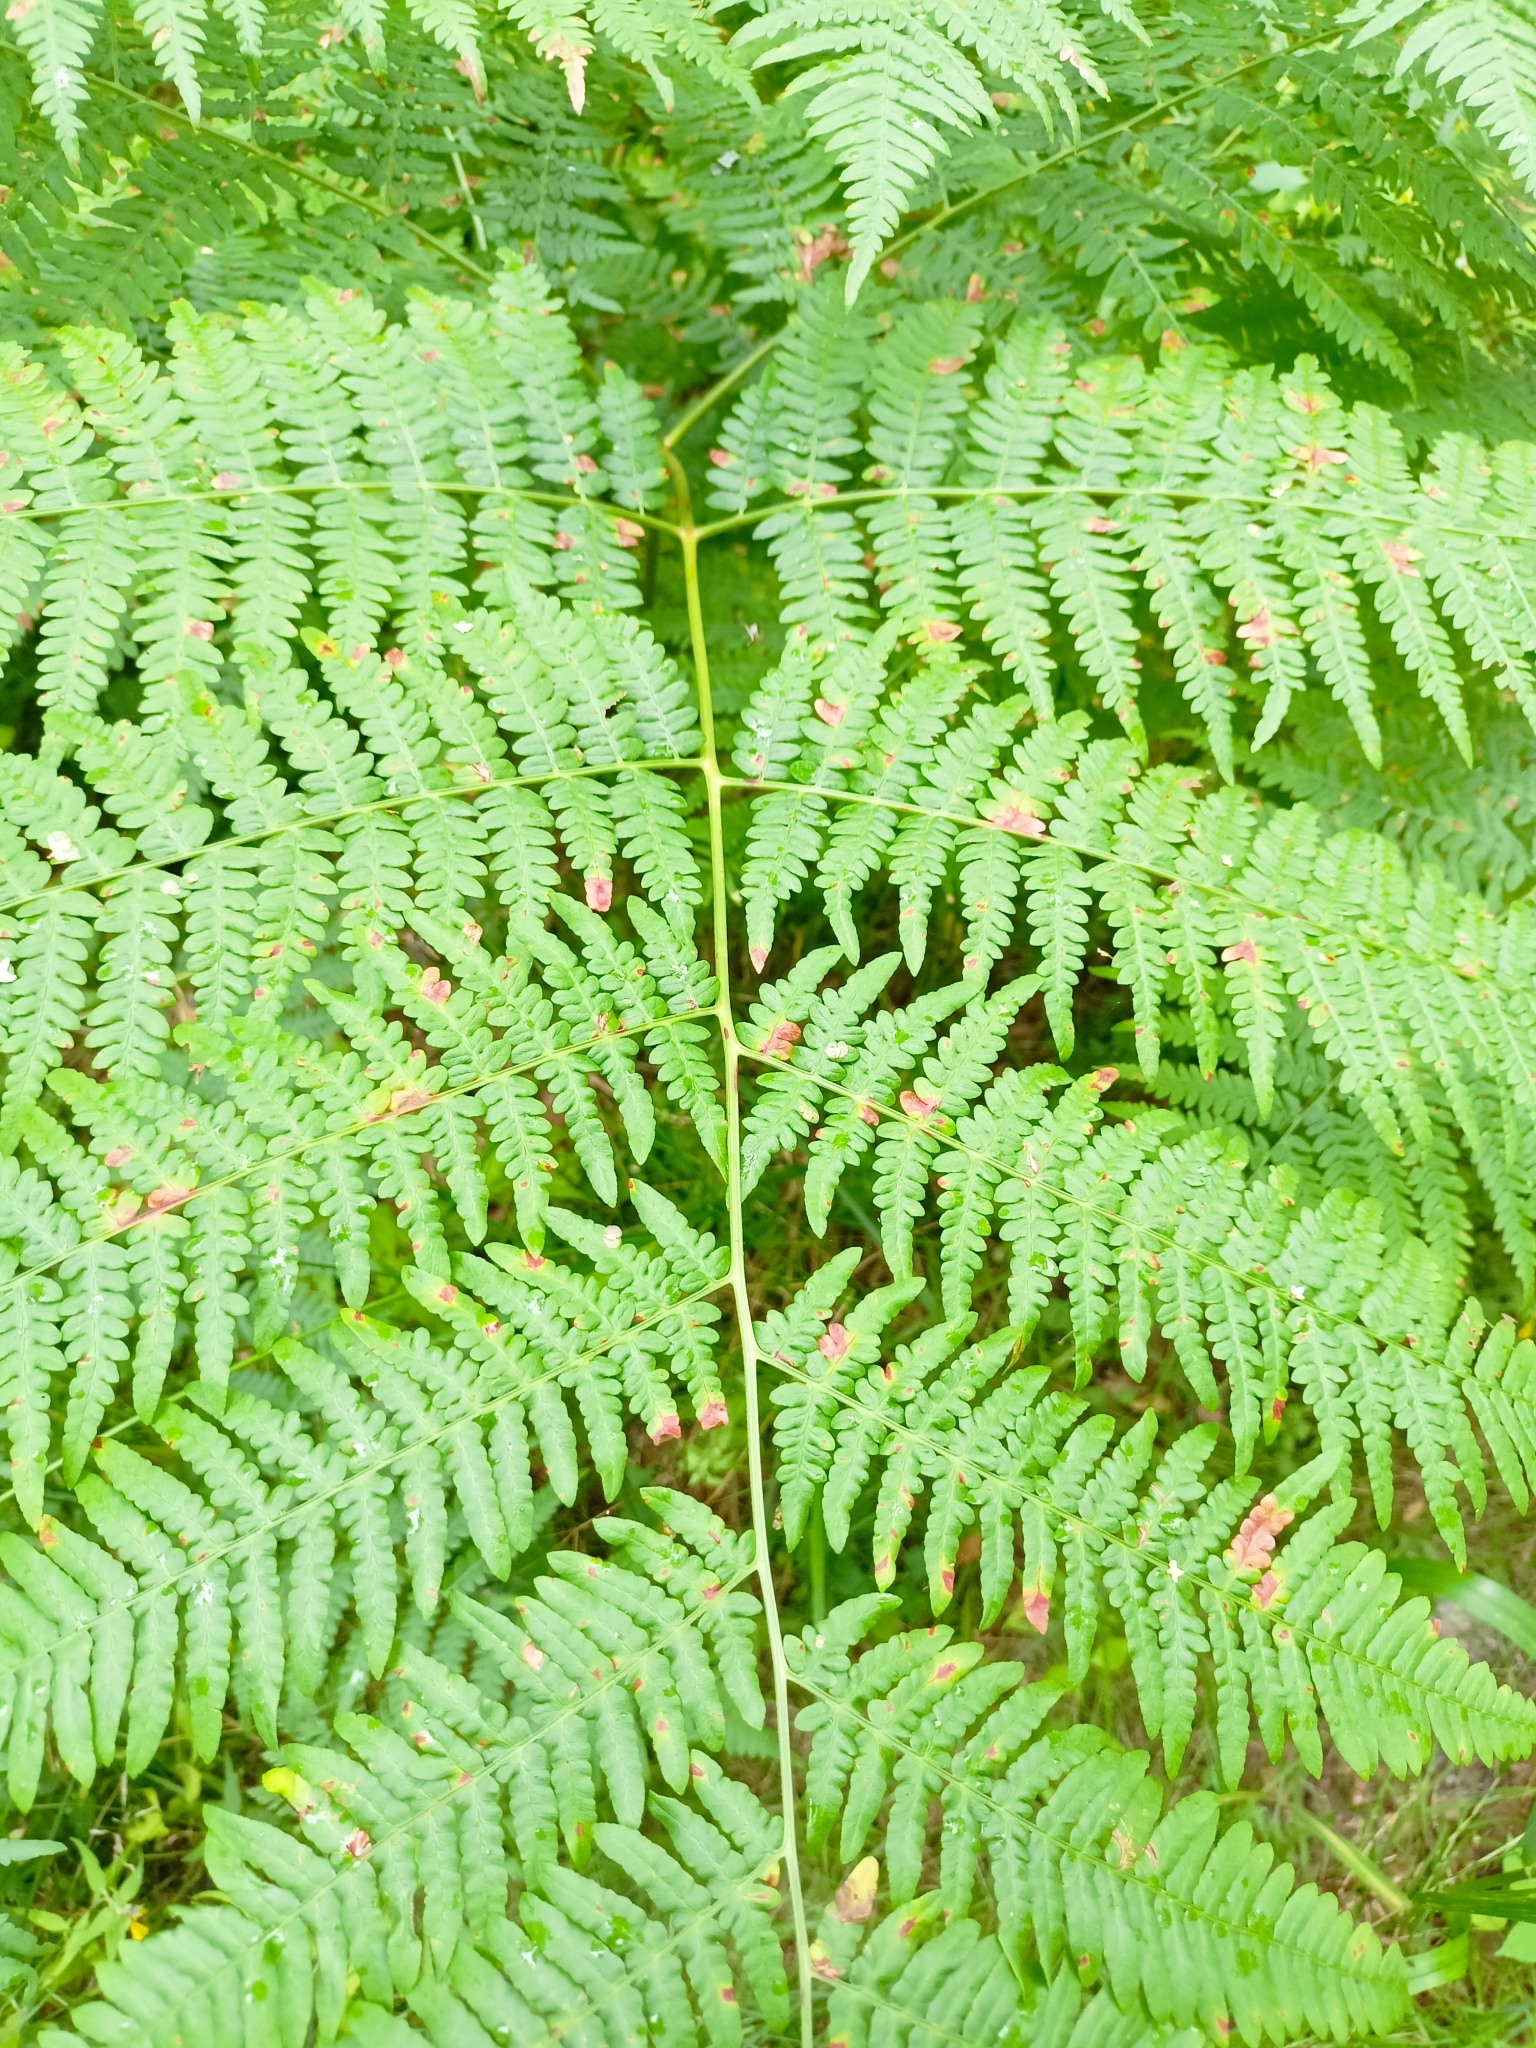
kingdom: Plantae
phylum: Tracheophyta
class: Polypodiopsida
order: Polypodiales
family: Dennstaedtiaceae
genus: Pteridium
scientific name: Pteridium aquilinum
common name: Bracken
